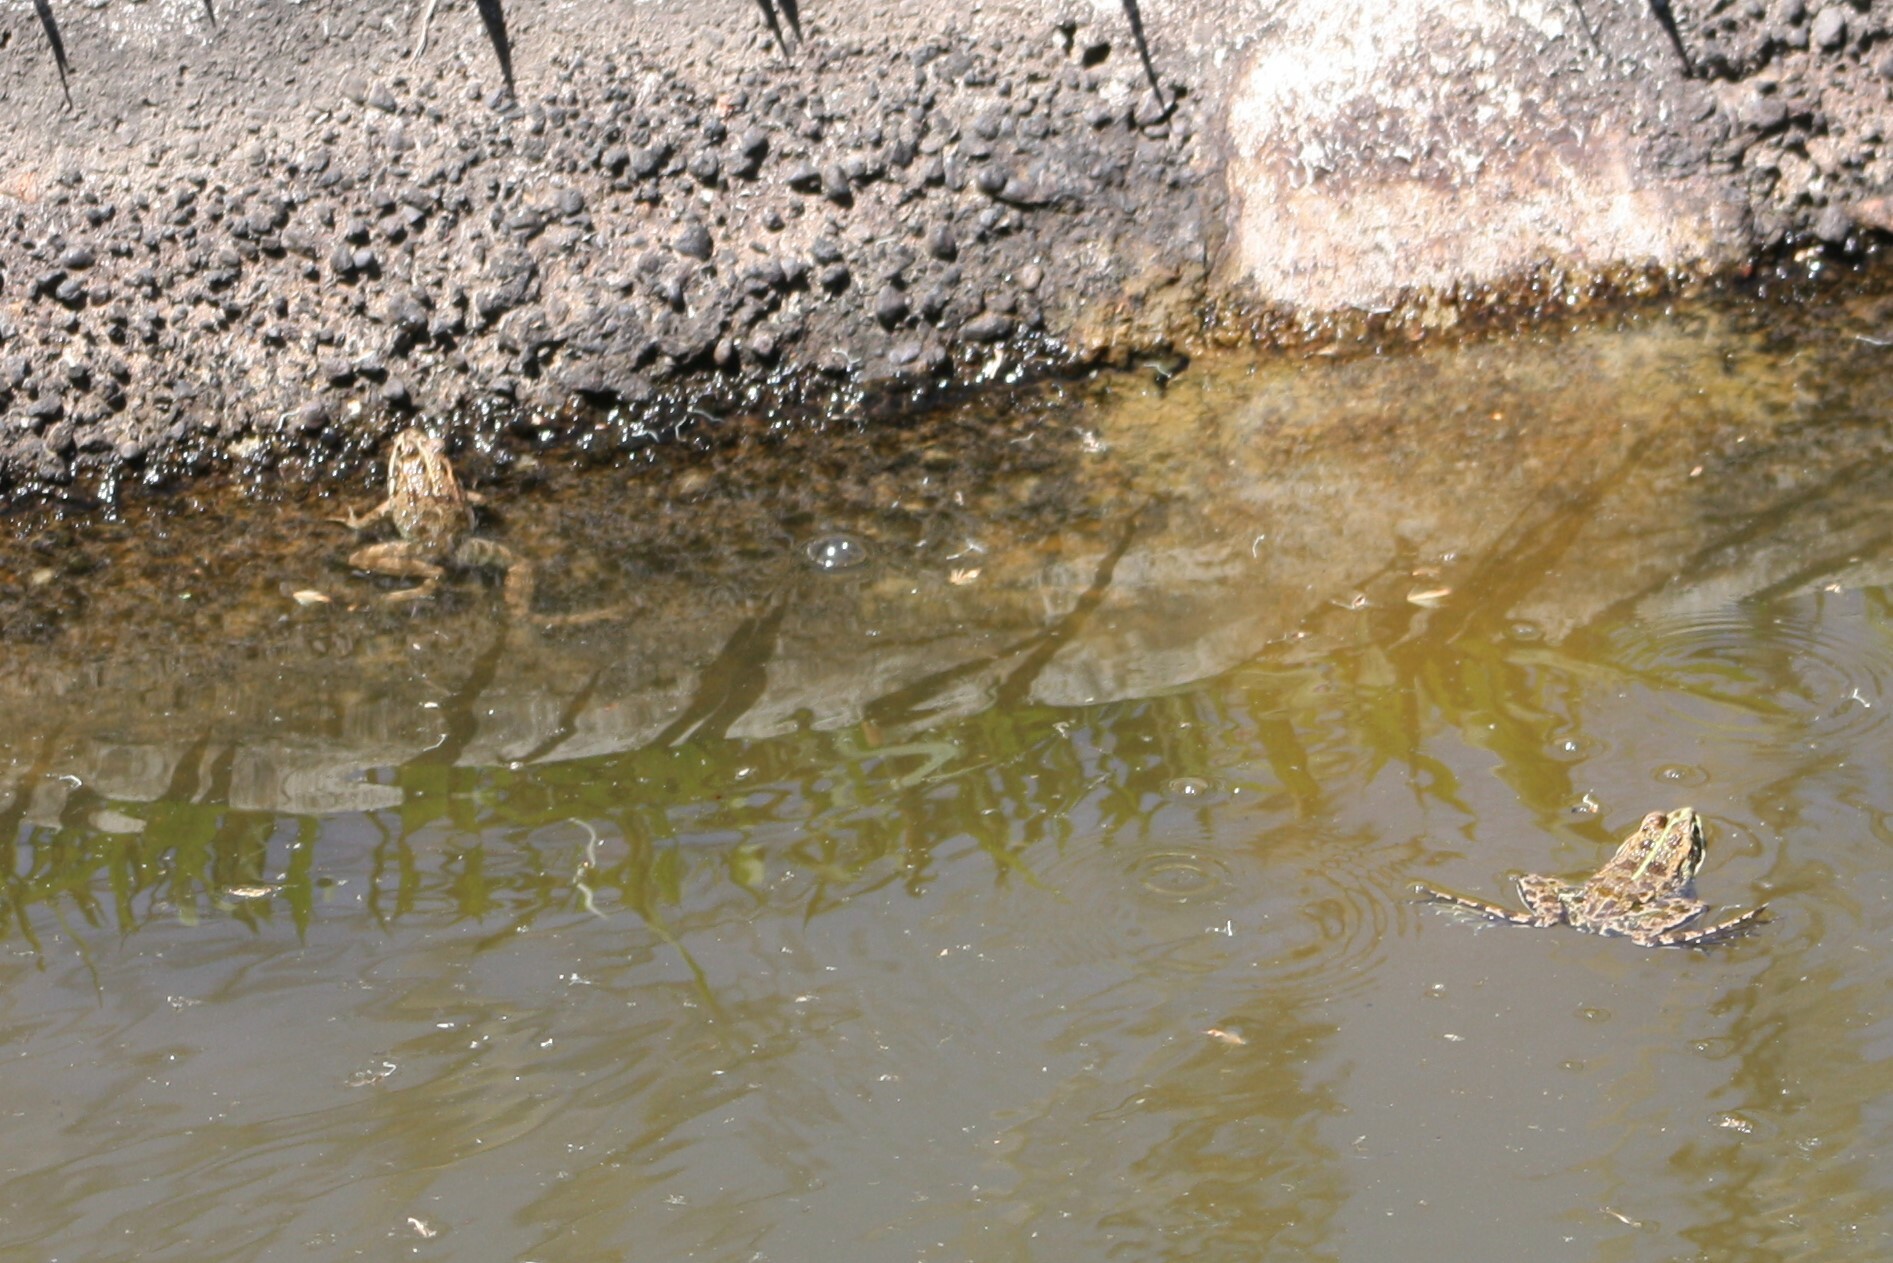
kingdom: Animalia
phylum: Chordata
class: Amphibia
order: Anura
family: Ranidae
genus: Pelophylax
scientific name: Pelophylax perezi
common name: Perez's frog
